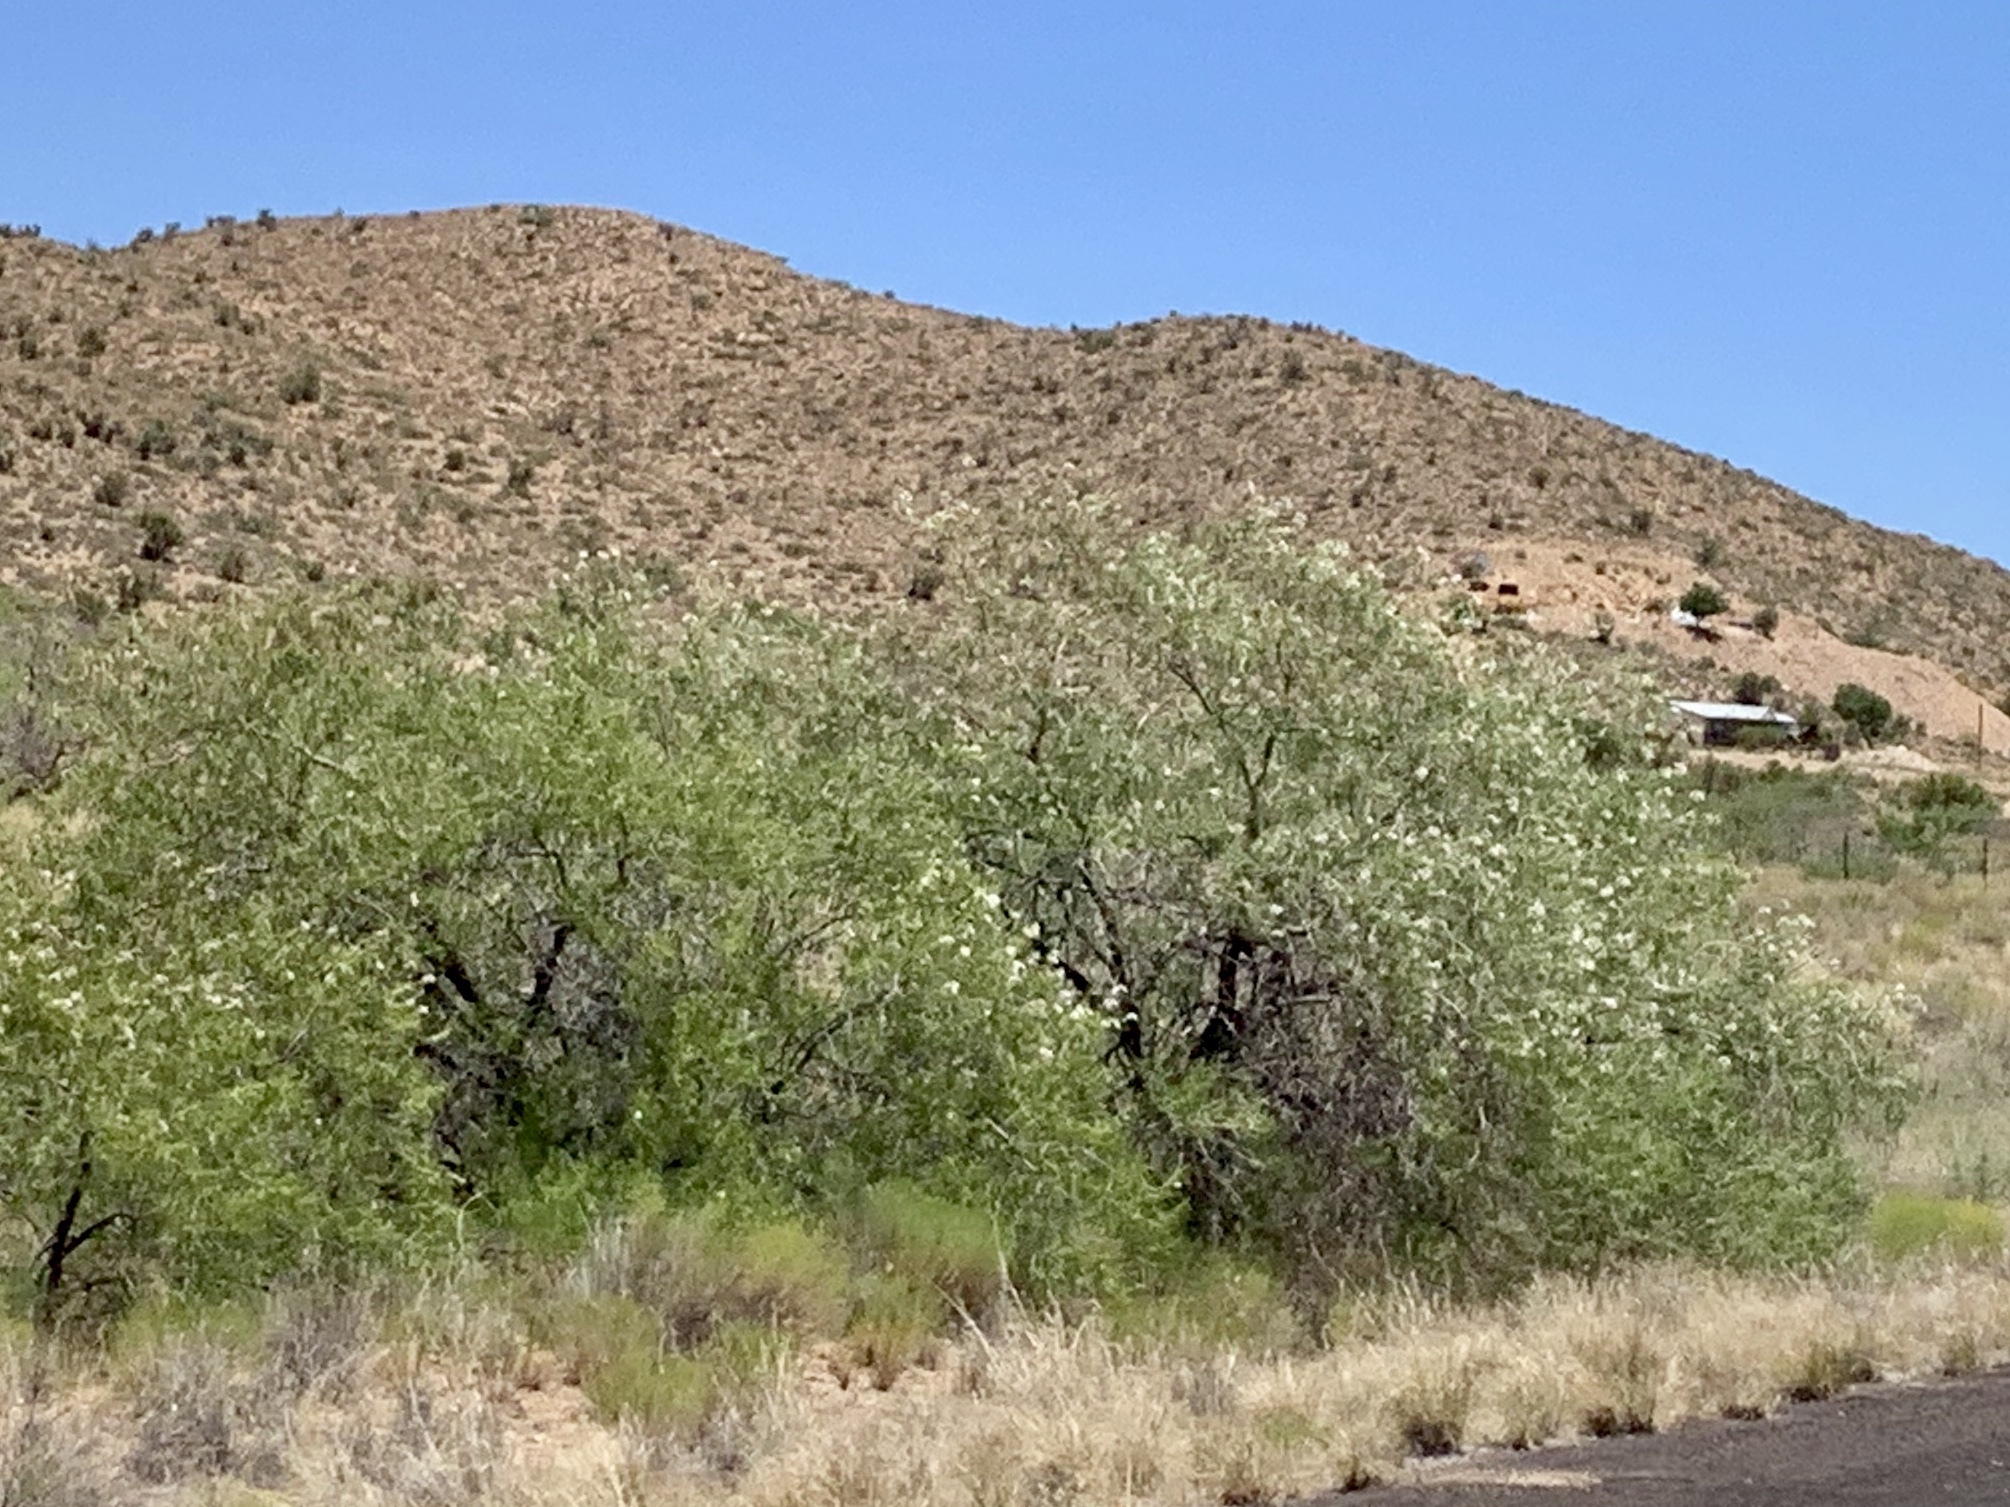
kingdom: Plantae
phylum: Tracheophyta
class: Magnoliopsida
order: Lamiales
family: Bignoniaceae
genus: Chilopsis
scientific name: Chilopsis linearis
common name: Desert-willow
